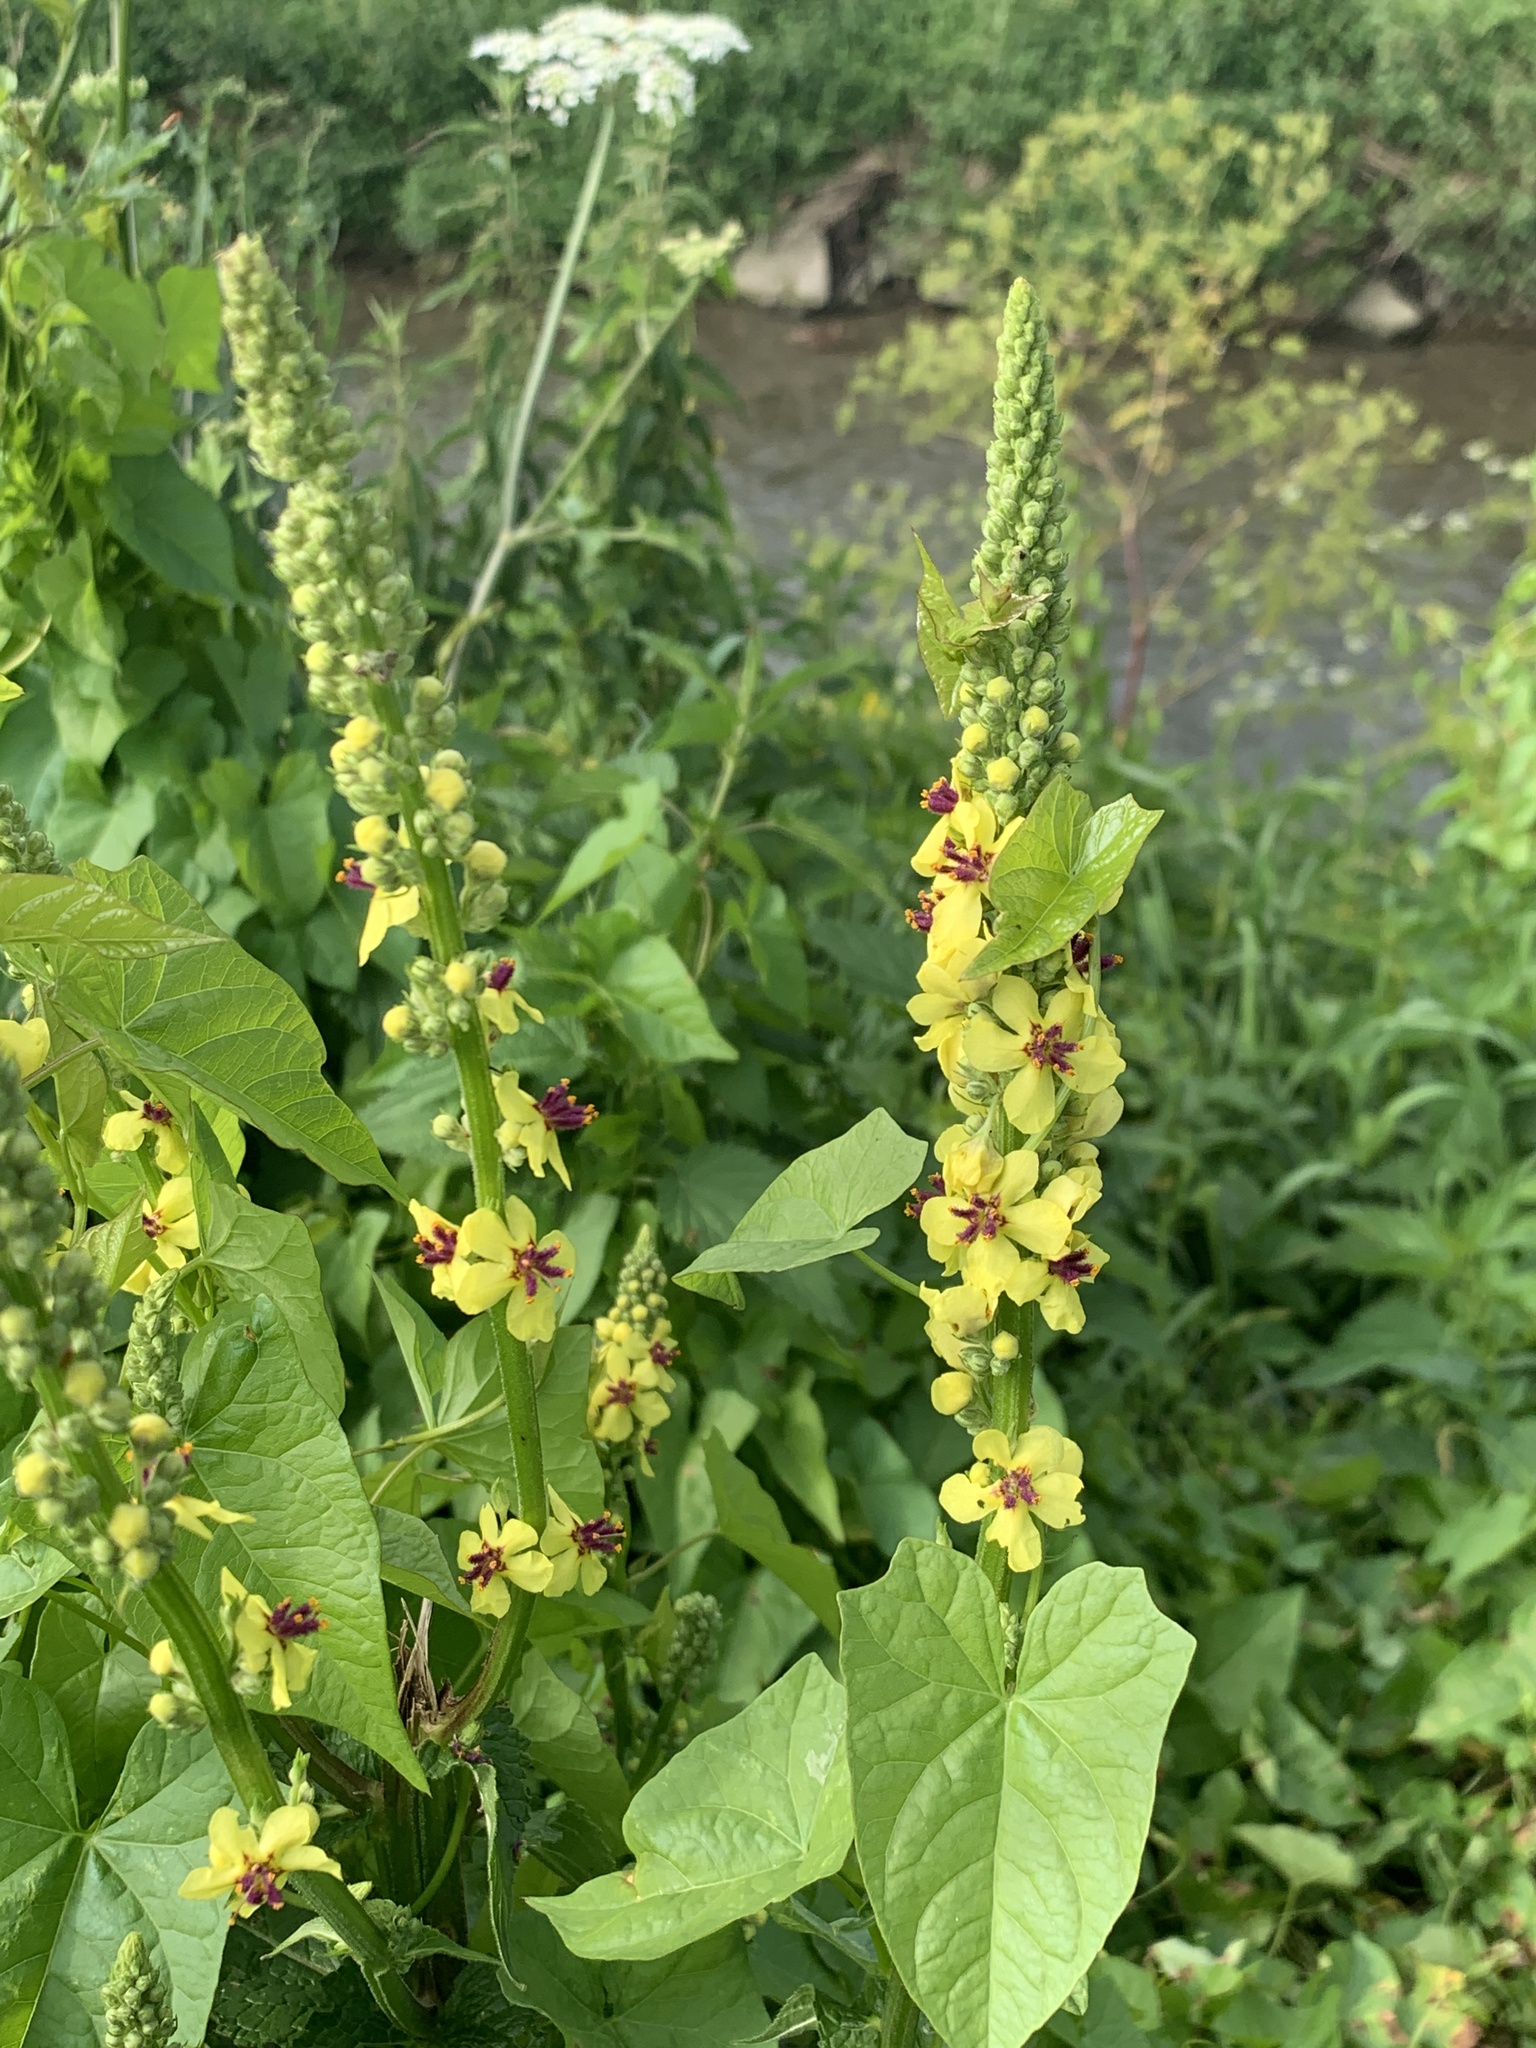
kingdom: Plantae
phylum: Tracheophyta
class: Magnoliopsida
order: Lamiales
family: Scrophulariaceae
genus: Verbascum
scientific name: Verbascum nigrum
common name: Dark mullein
